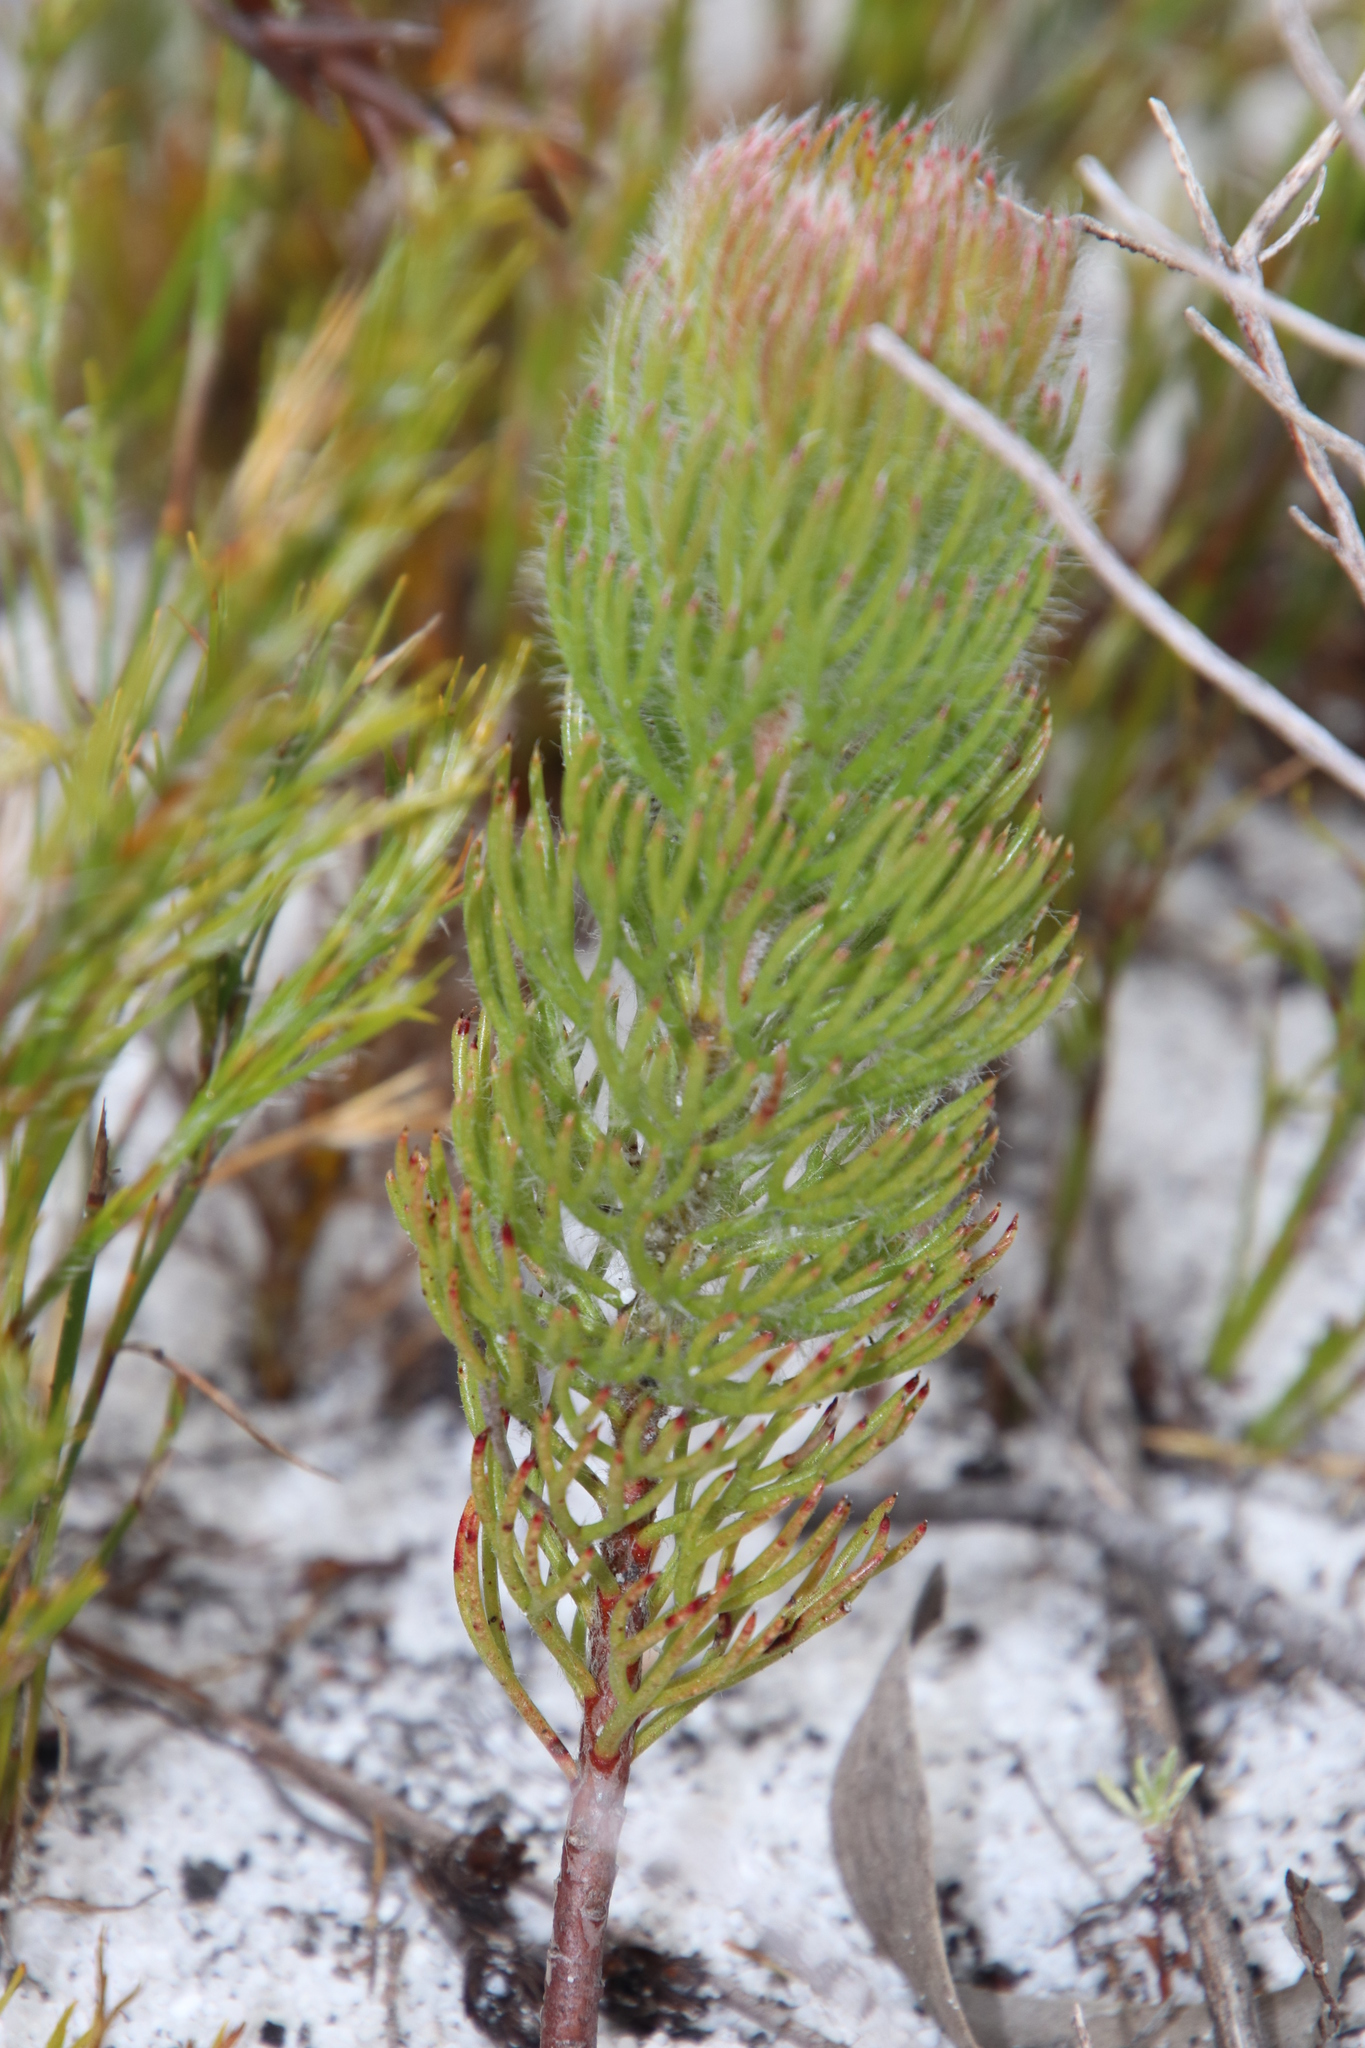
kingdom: Plantae
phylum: Tracheophyta
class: Magnoliopsida
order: Proteales
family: Proteaceae
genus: Serruria
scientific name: Serruria villosa
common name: Golden spiderhead
